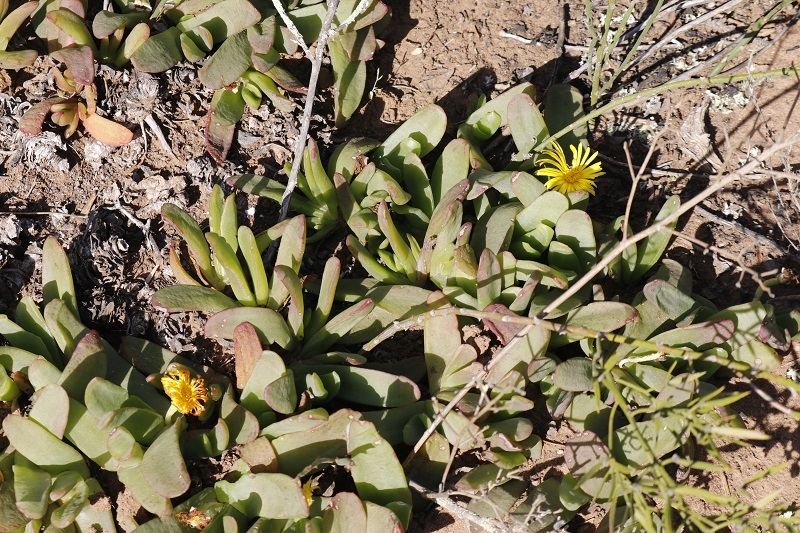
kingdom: Plantae
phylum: Tracheophyta
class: Magnoliopsida
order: Caryophyllales
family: Aizoaceae
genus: Glottiphyllum
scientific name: Glottiphyllum longum
